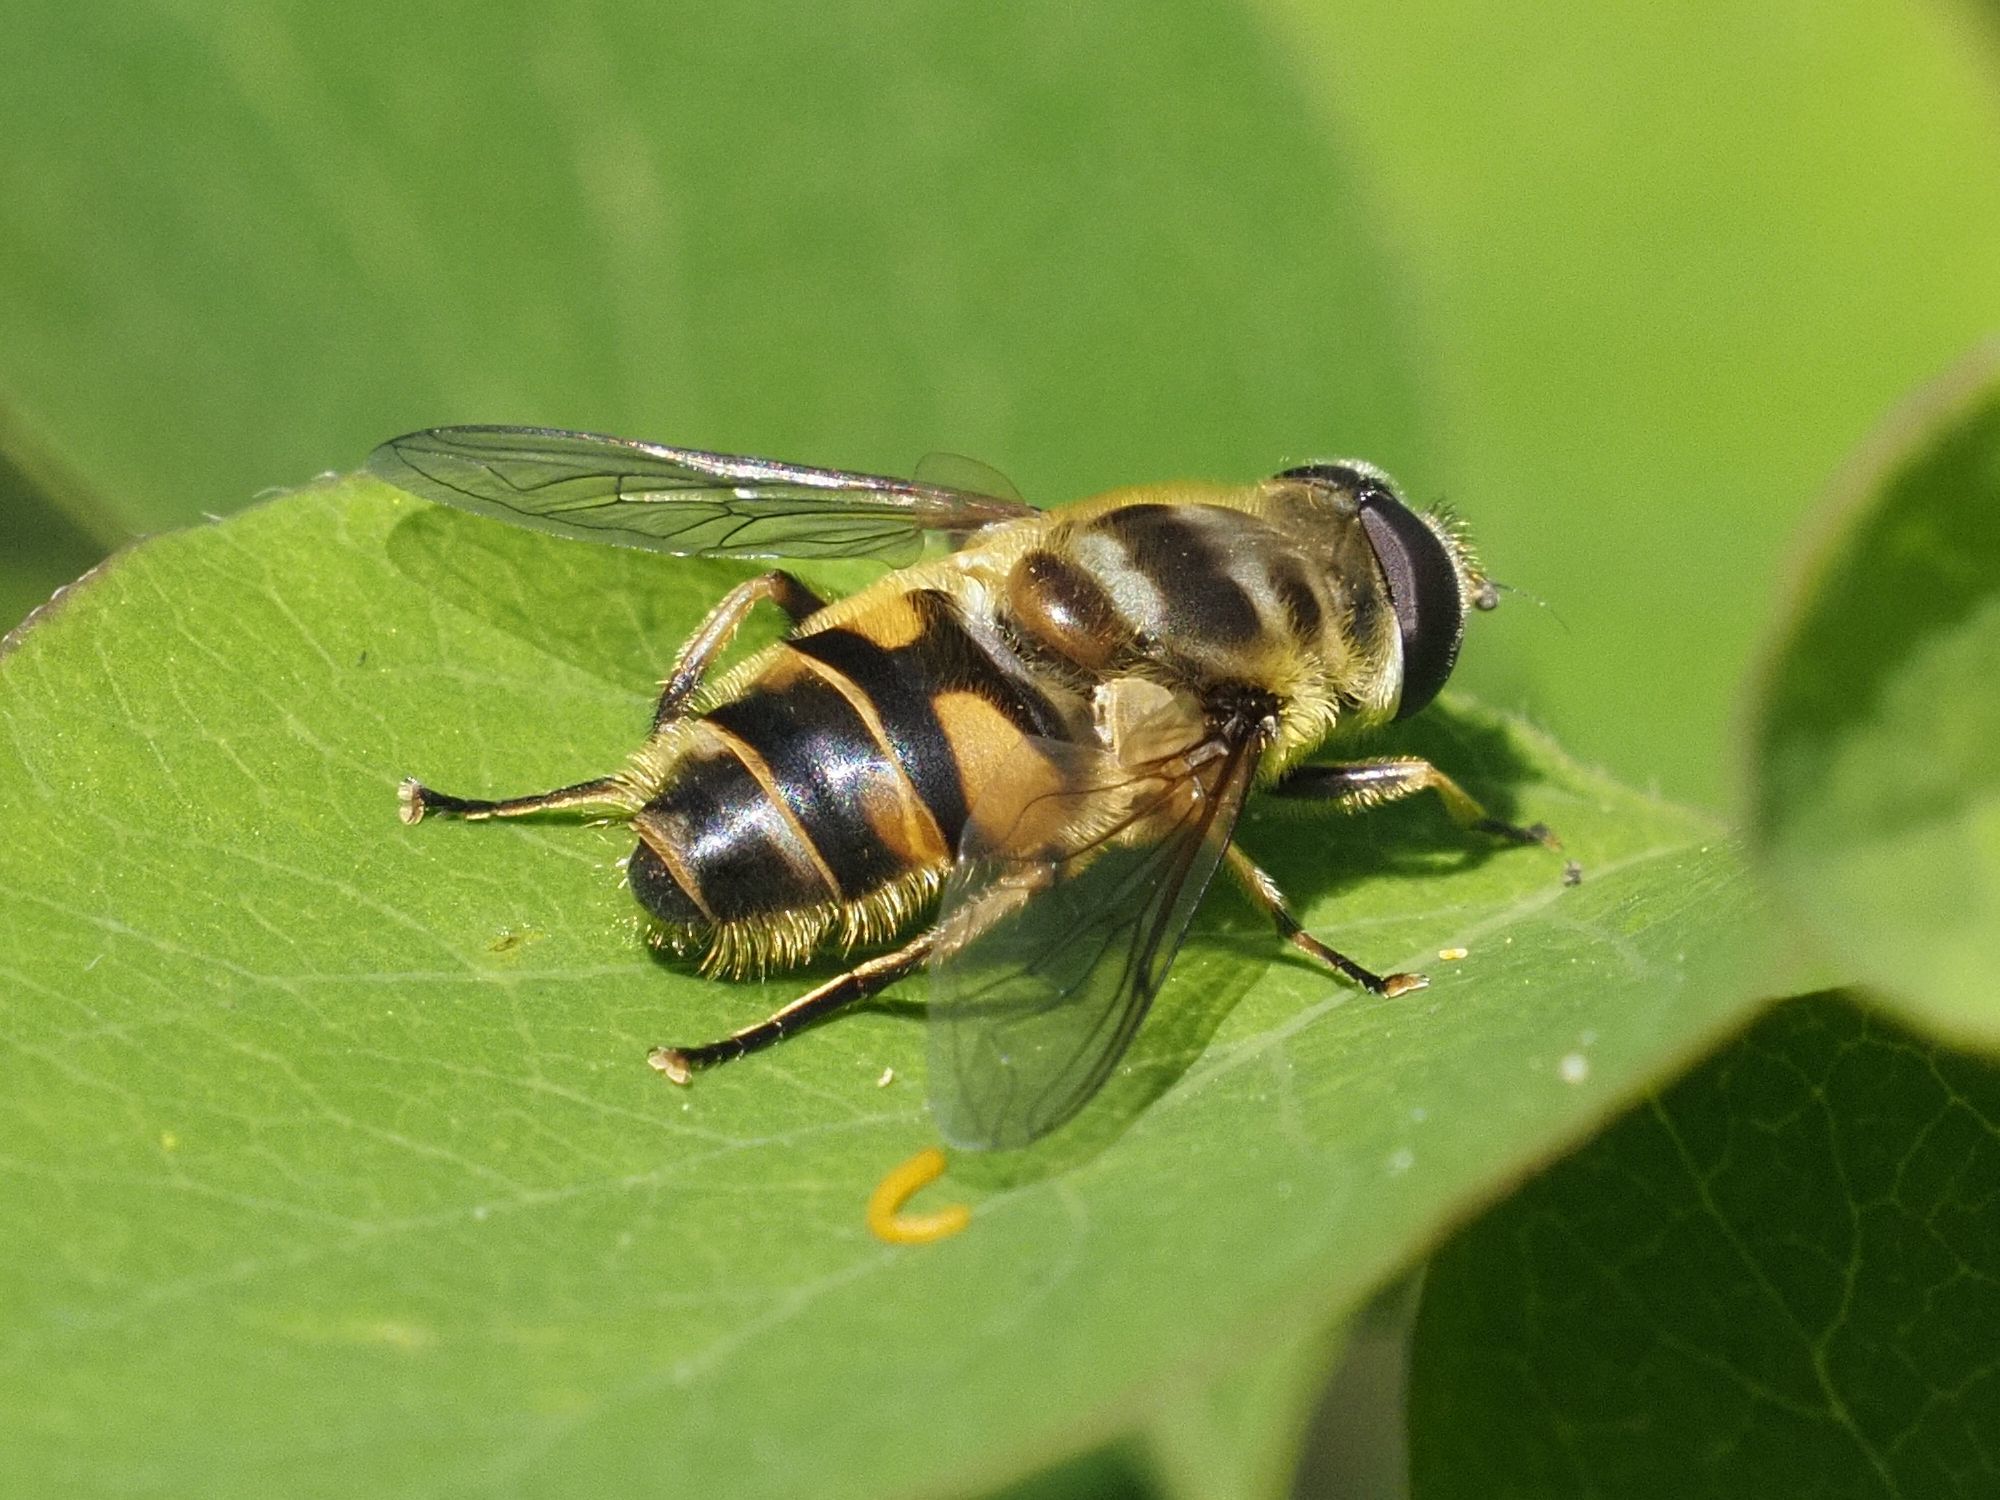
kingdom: Animalia
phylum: Arthropoda
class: Insecta
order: Diptera
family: Syrphidae
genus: Myathropa
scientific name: Myathropa florea
